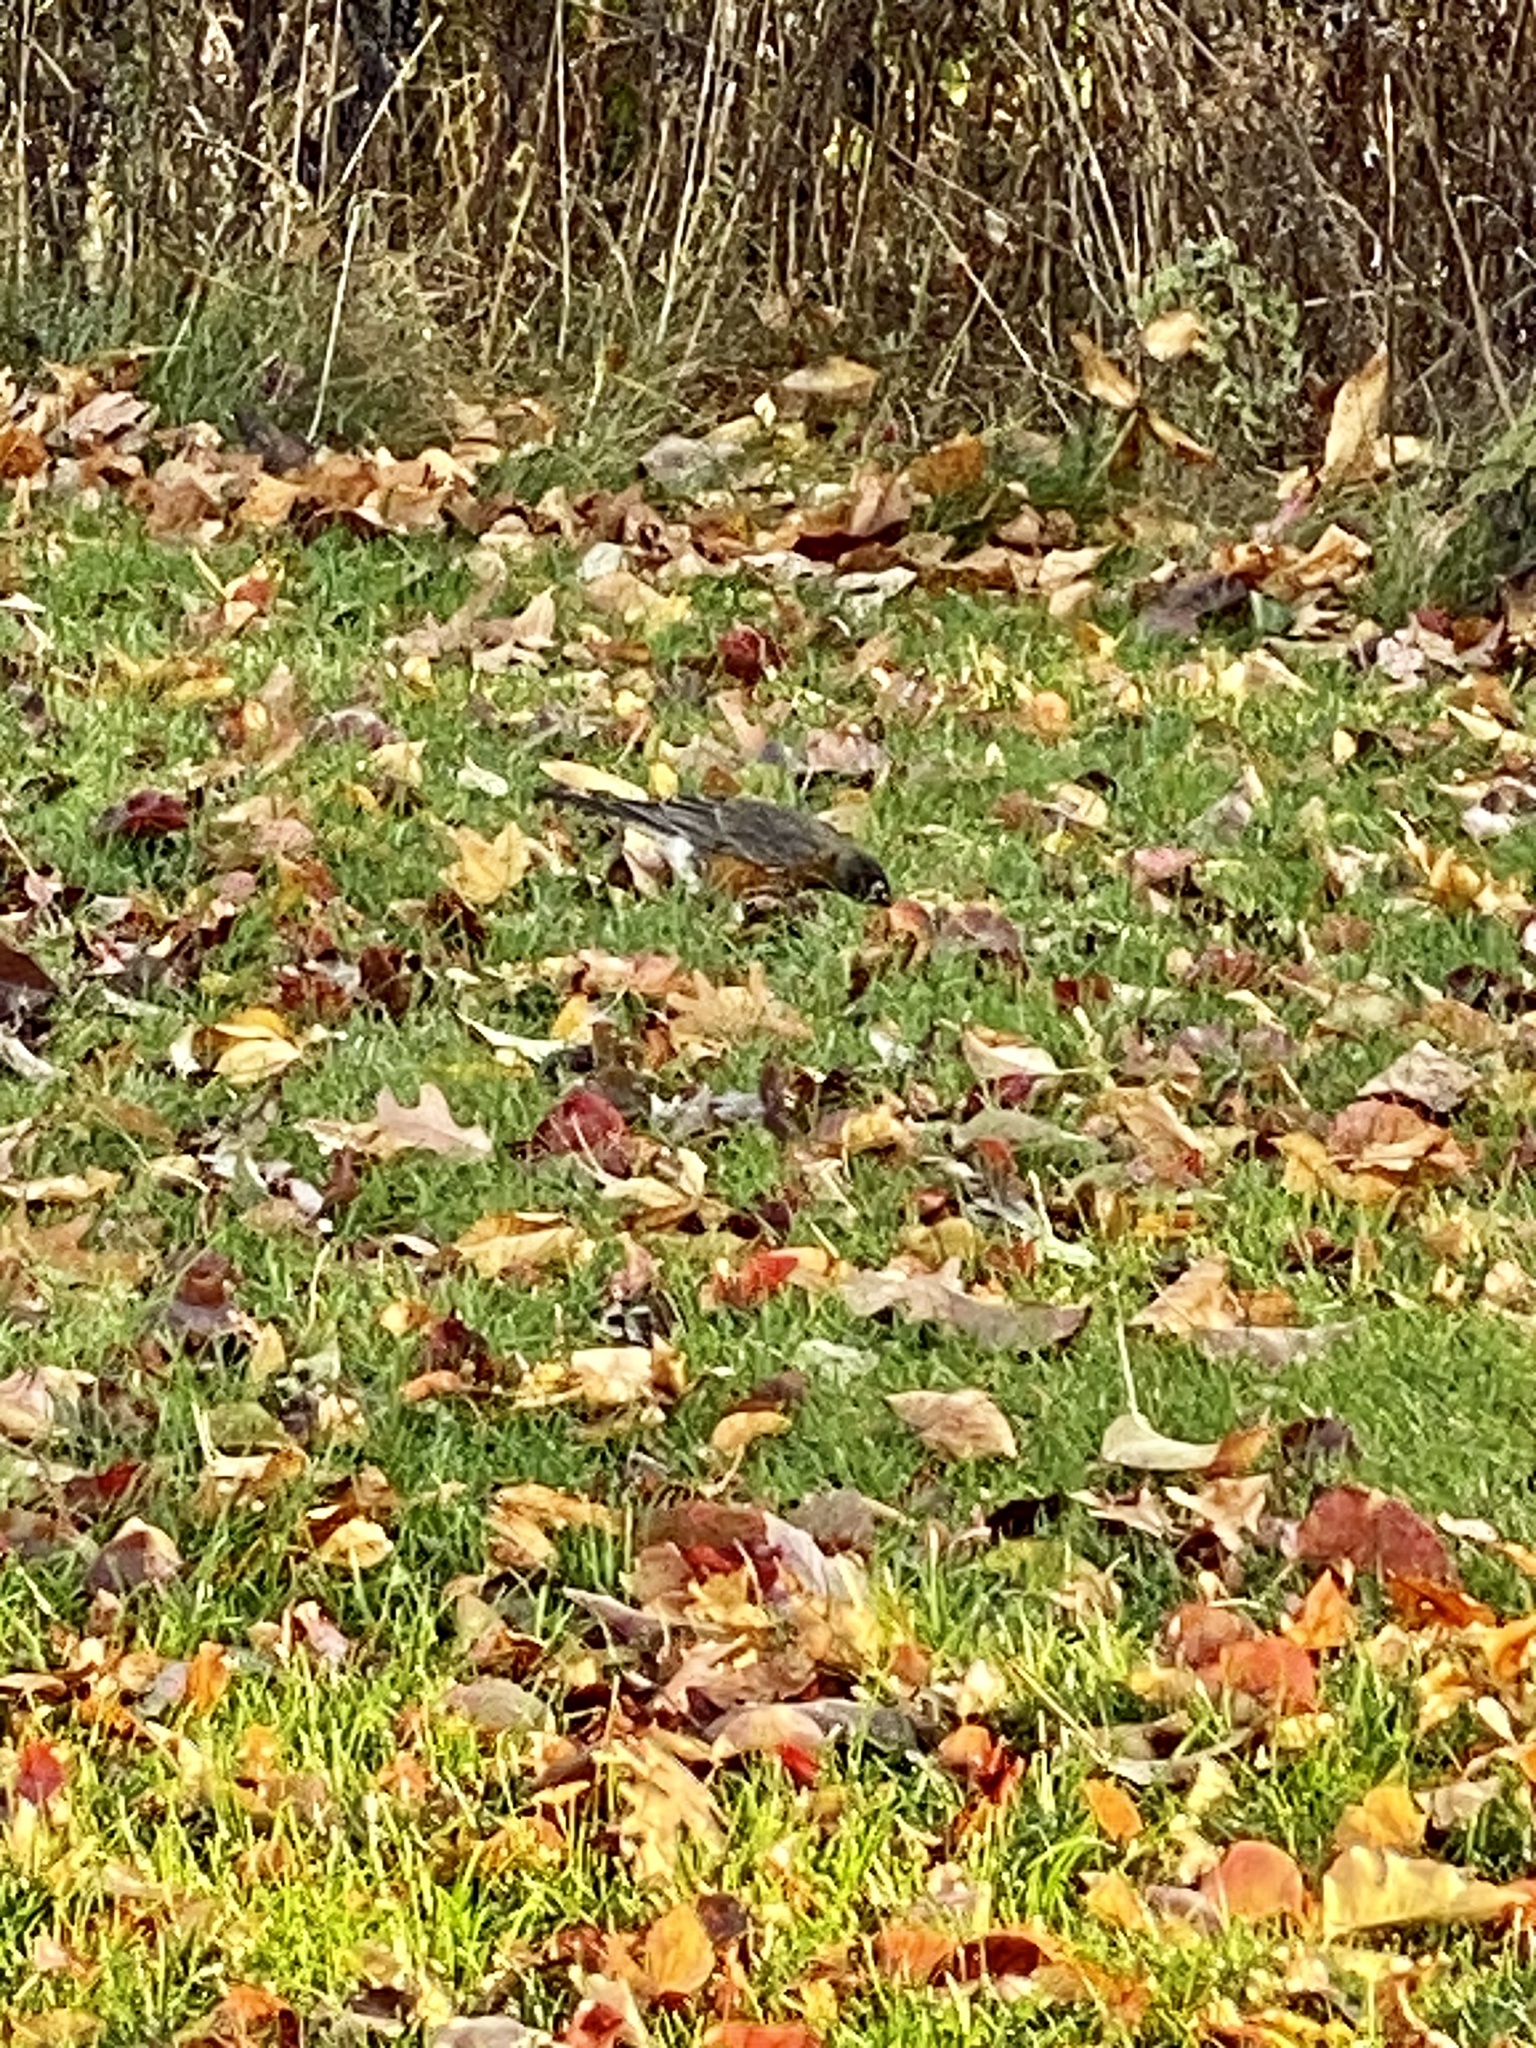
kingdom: Animalia
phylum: Chordata
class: Aves
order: Passeriformes
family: Turdidae
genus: Turdus
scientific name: Turdus migratorius
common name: American robin
